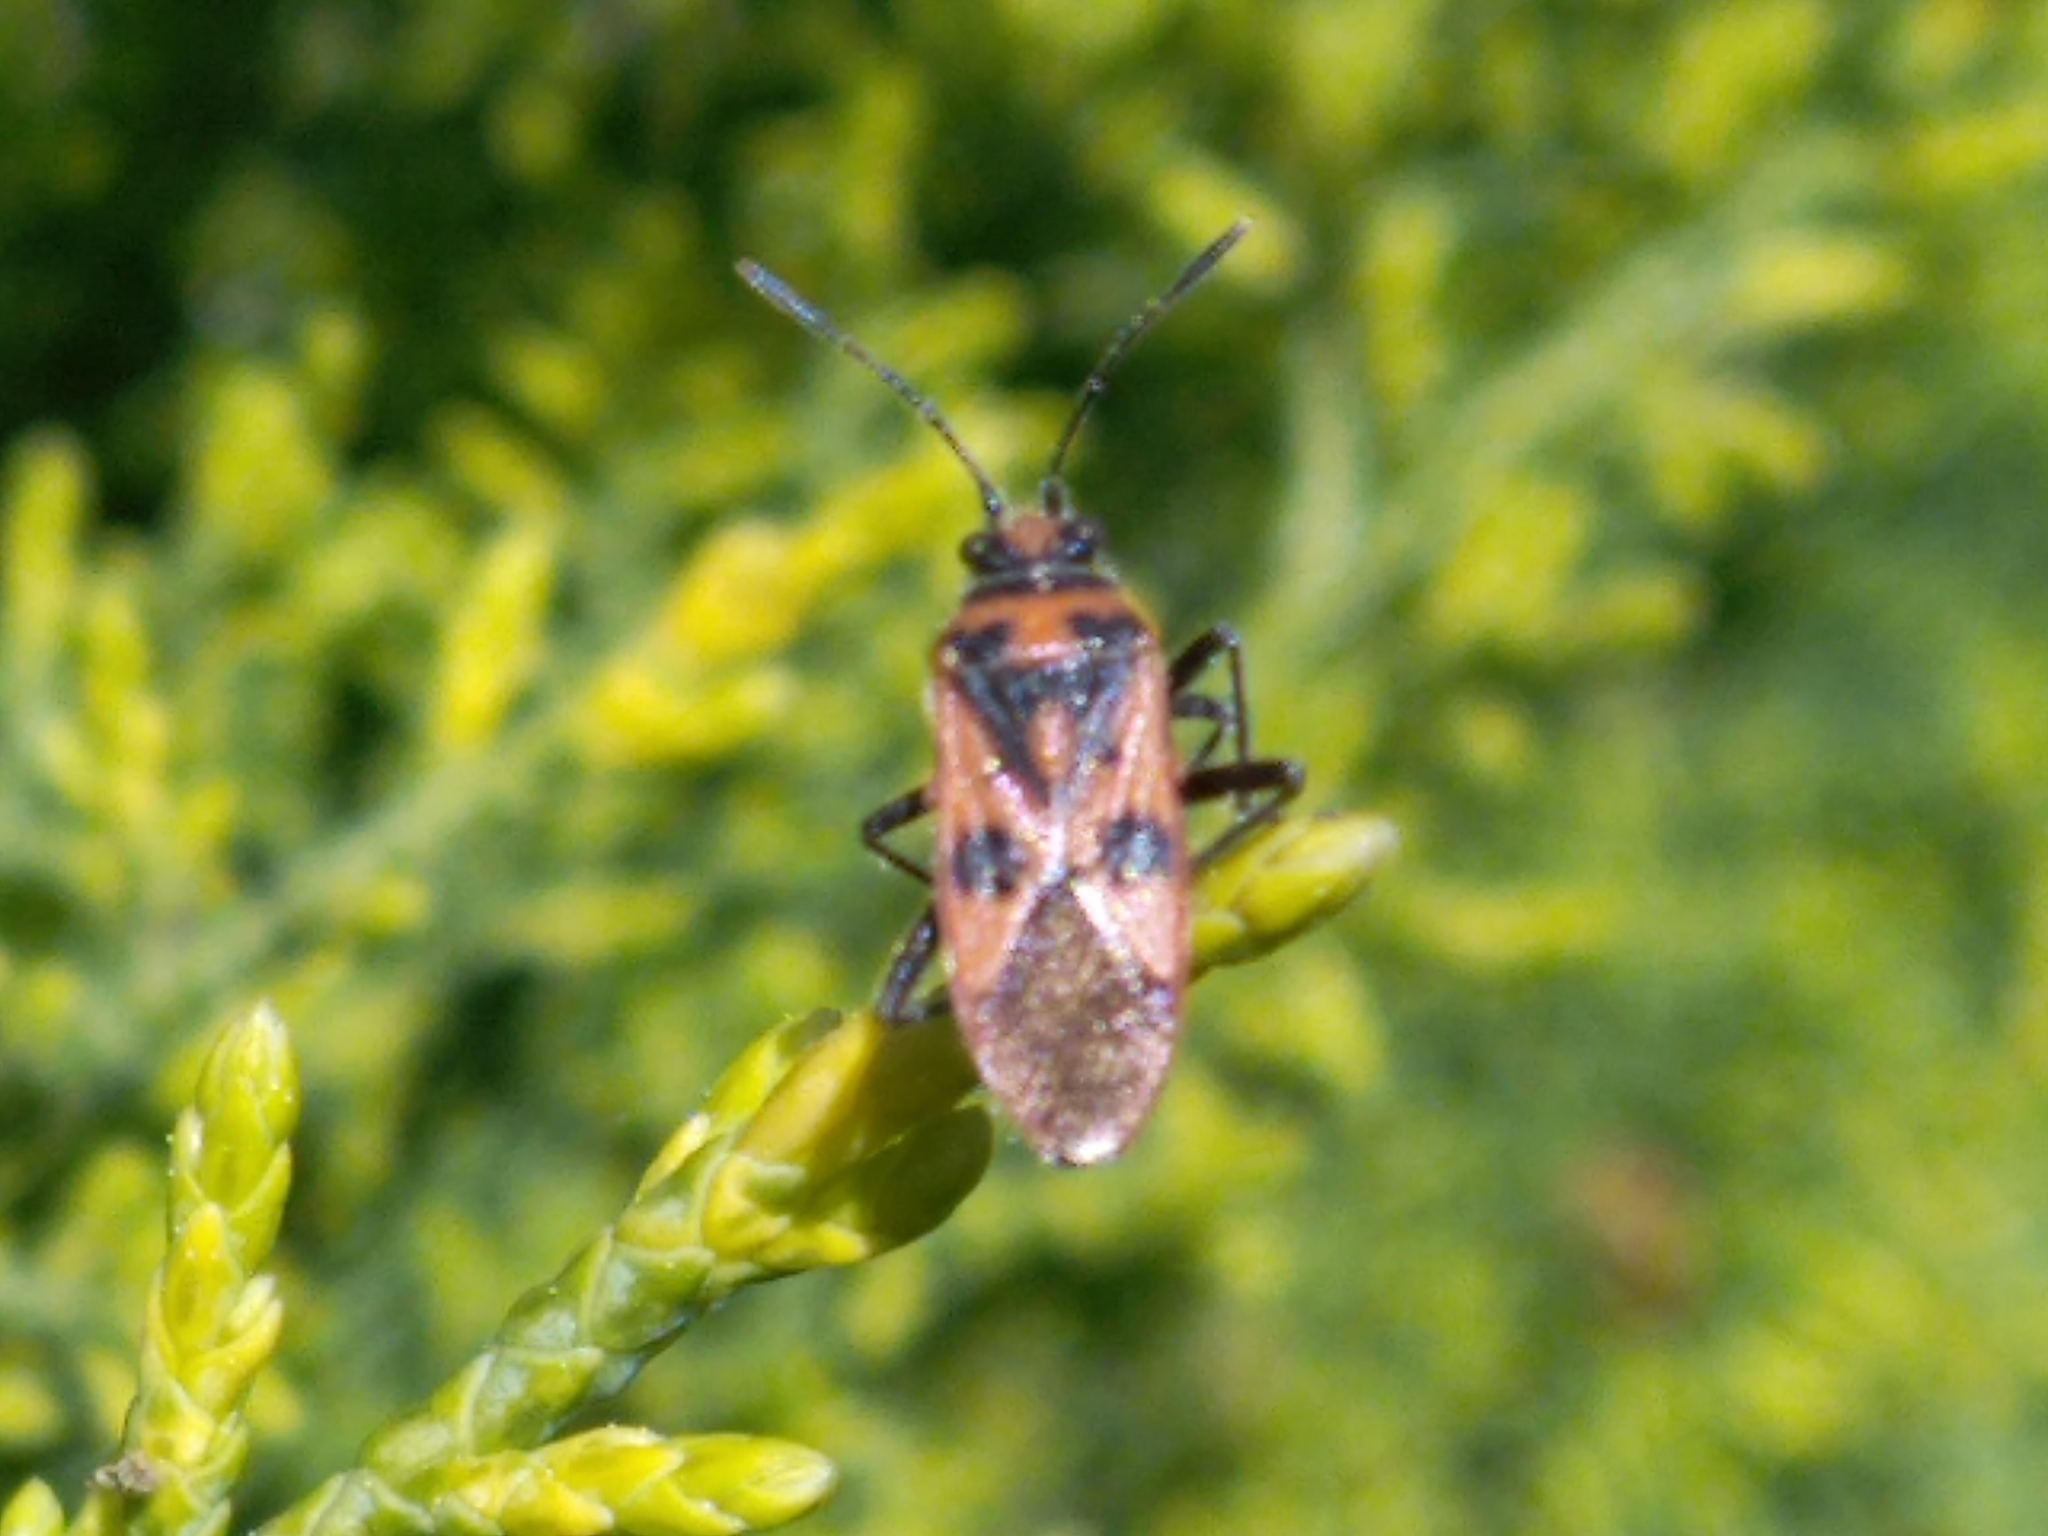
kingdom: Animalia
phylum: Arthropoda
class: Insecta
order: Hemiptera
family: Rhopalidae
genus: Corizus
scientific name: Corizus hyoscyami
